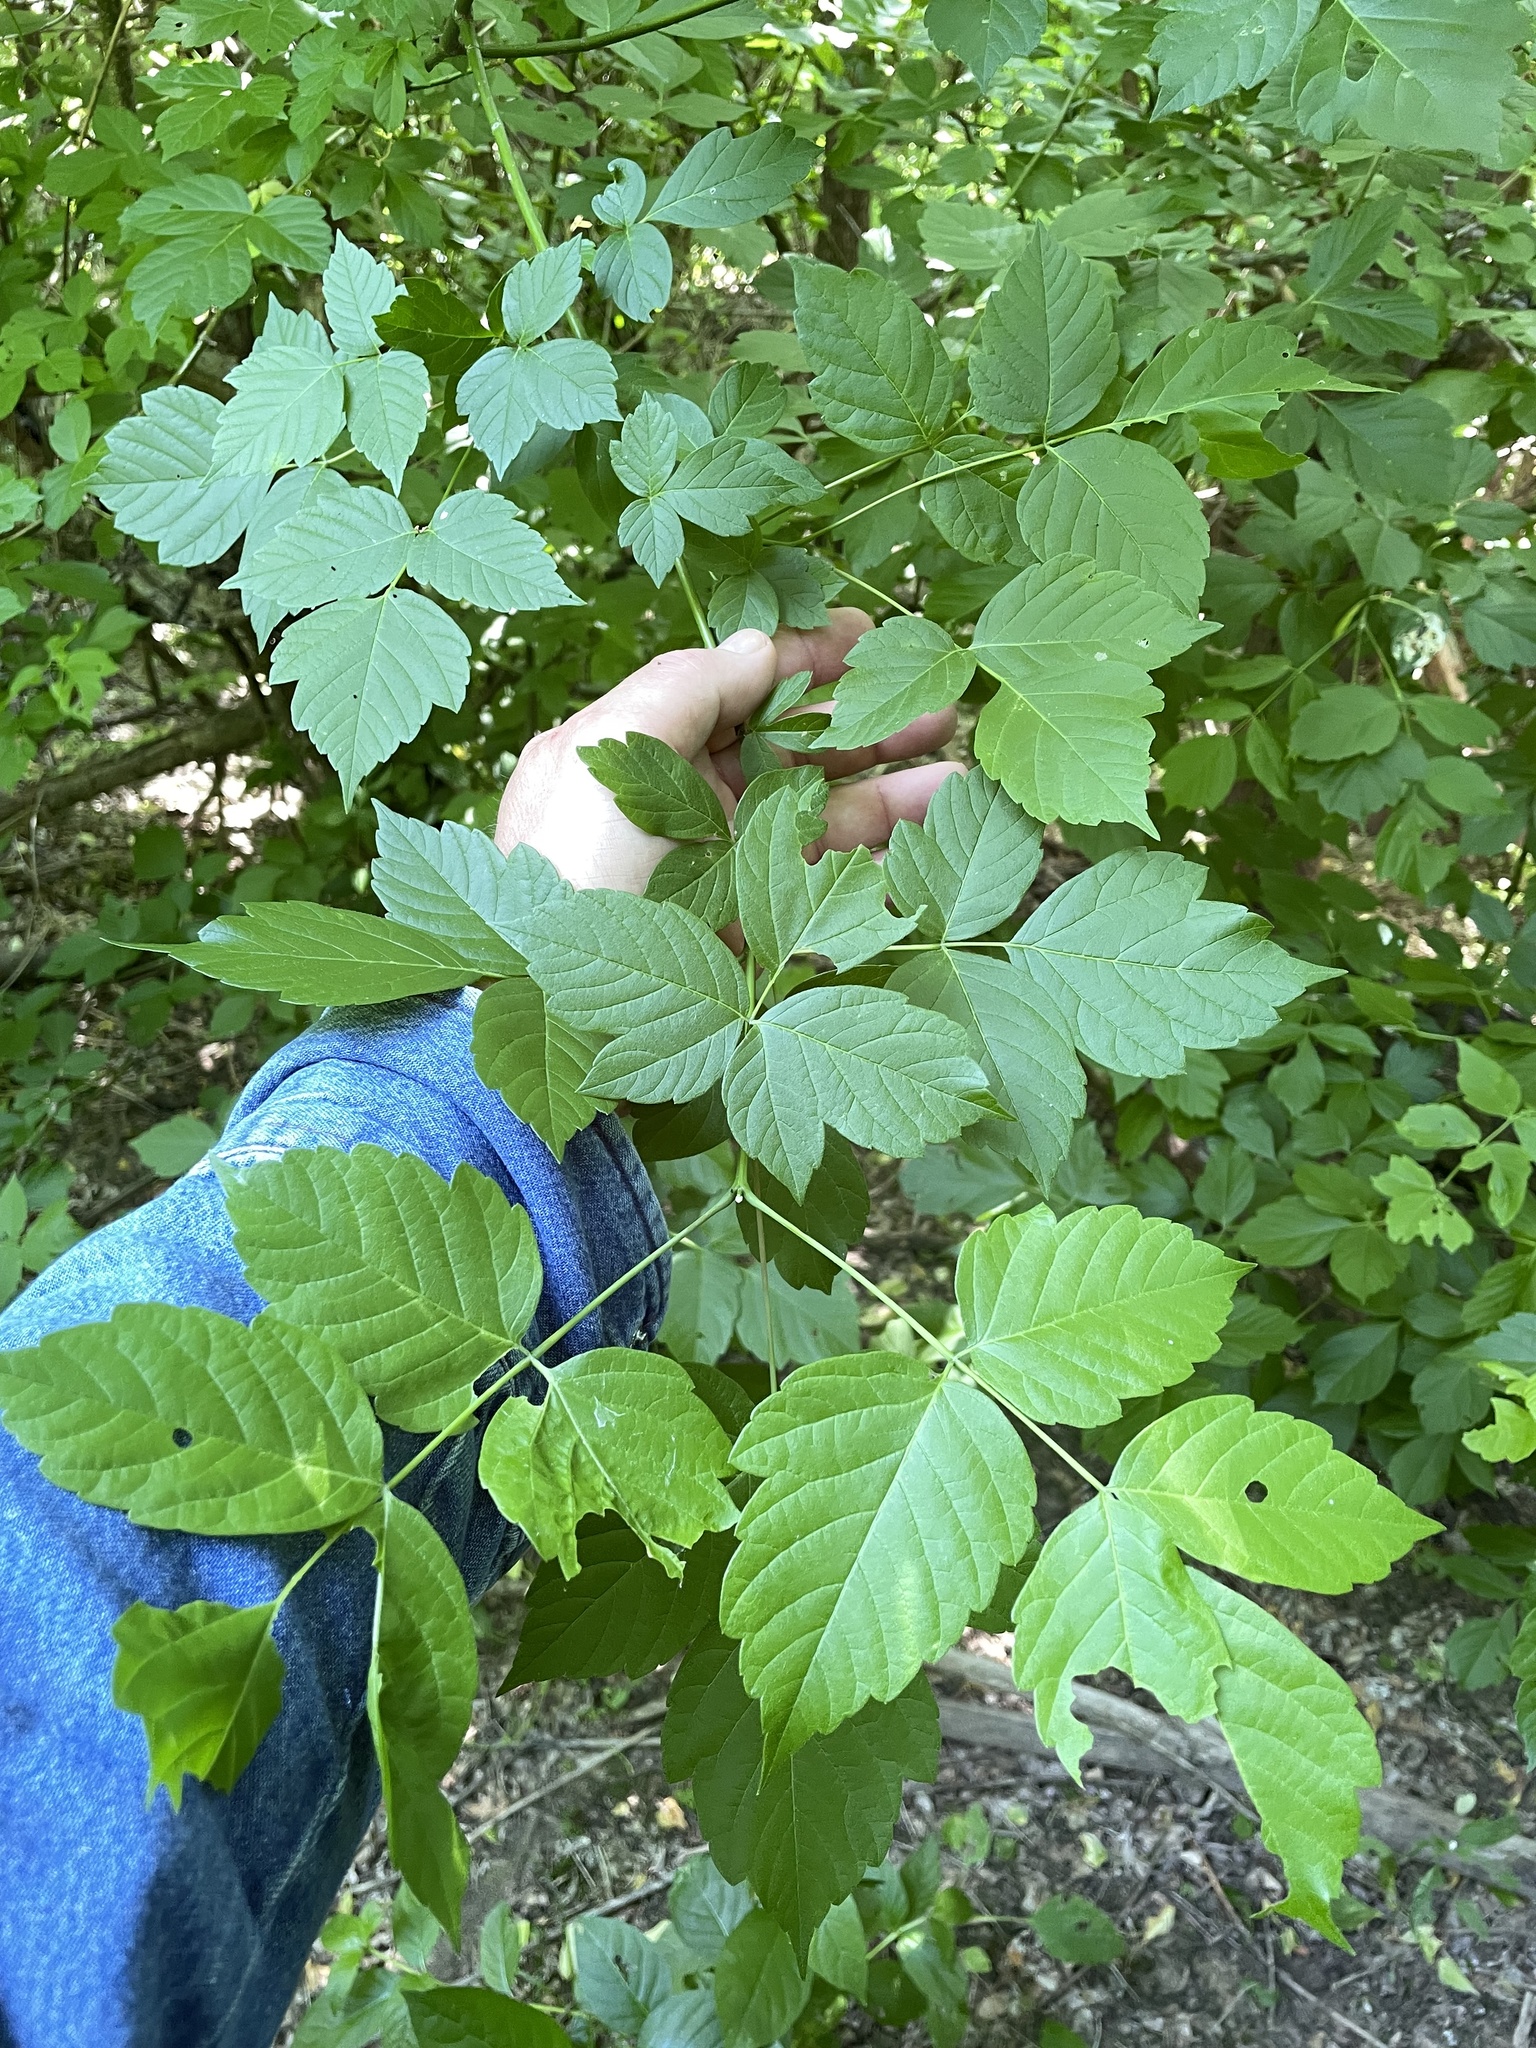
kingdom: Plantae
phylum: Tracheophyta
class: Magnoliopsida
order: Sapindales
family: Sapindaceae
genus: Acer
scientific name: Acer negundo
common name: Ashleaf maple
